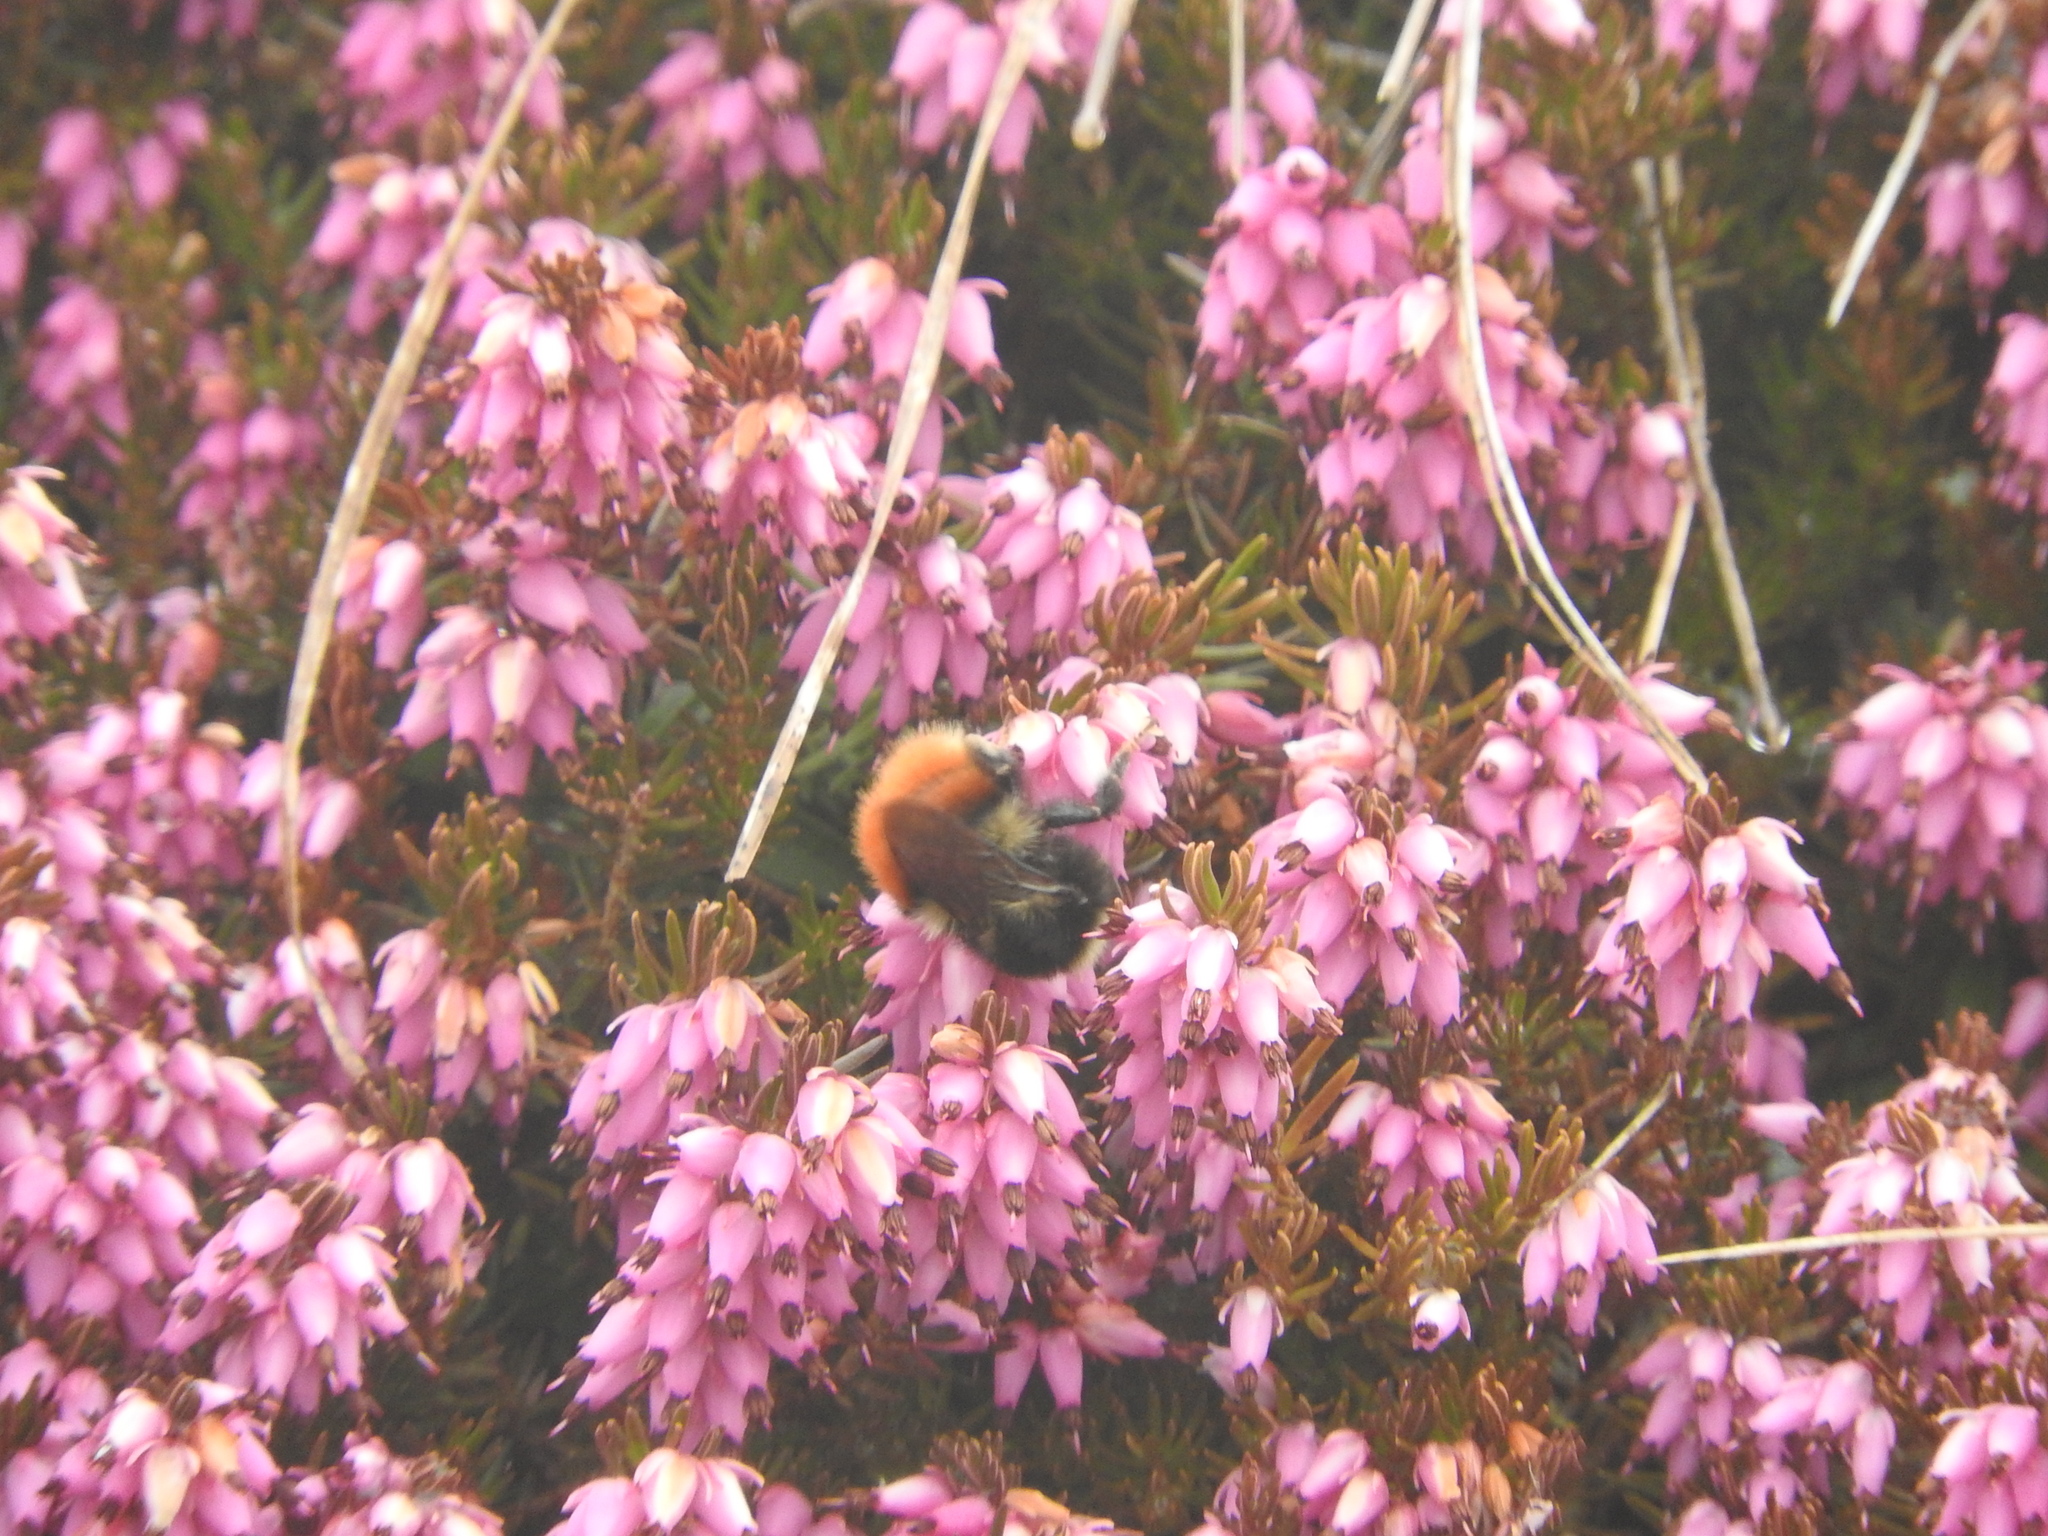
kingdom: Animalia
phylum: Arthropoda
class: Insecta
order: Hymenoptera
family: Apidae
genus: Bombus
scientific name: Bombus monticola
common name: Bilberry humble-bee
